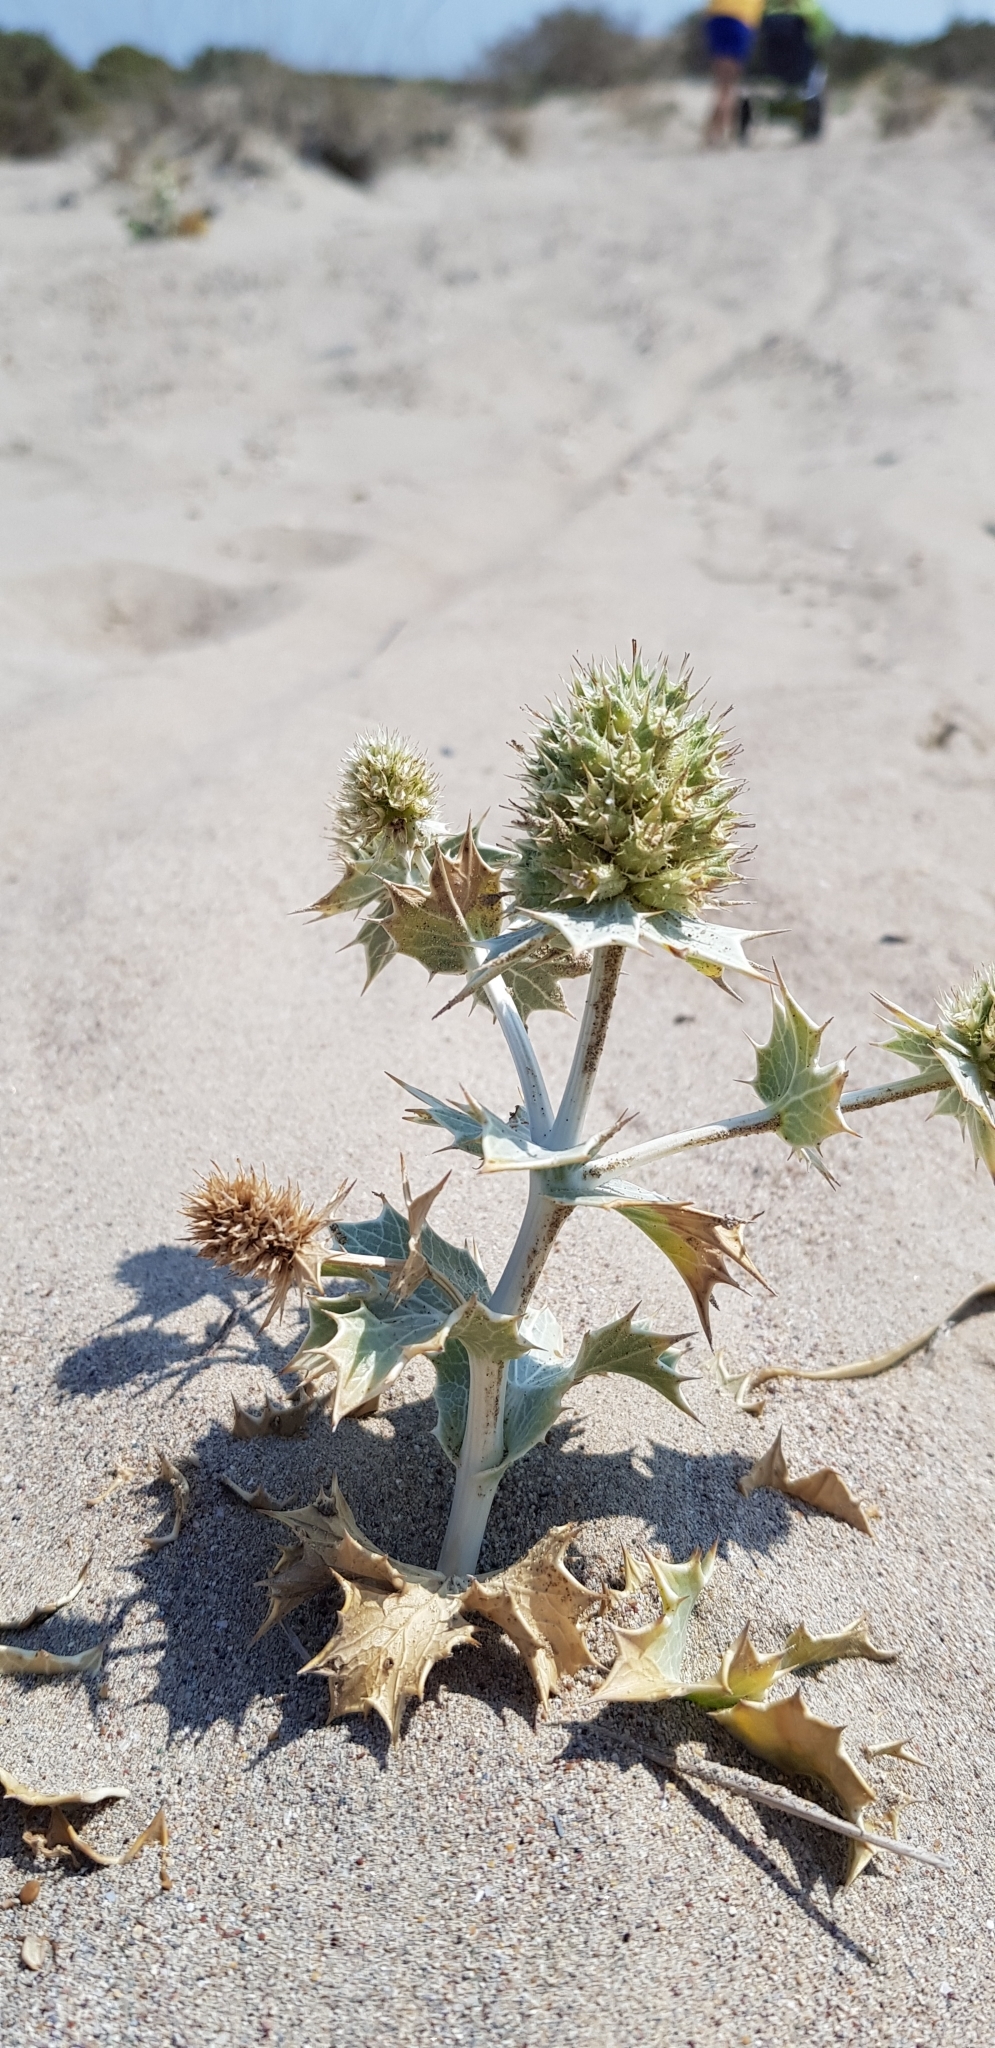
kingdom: Plantae
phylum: Tracheophyta
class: Magnoliopsida
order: Apiales
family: Apiaceae
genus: Eryngium
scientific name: Eryngium maritimum
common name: Sea-holly
